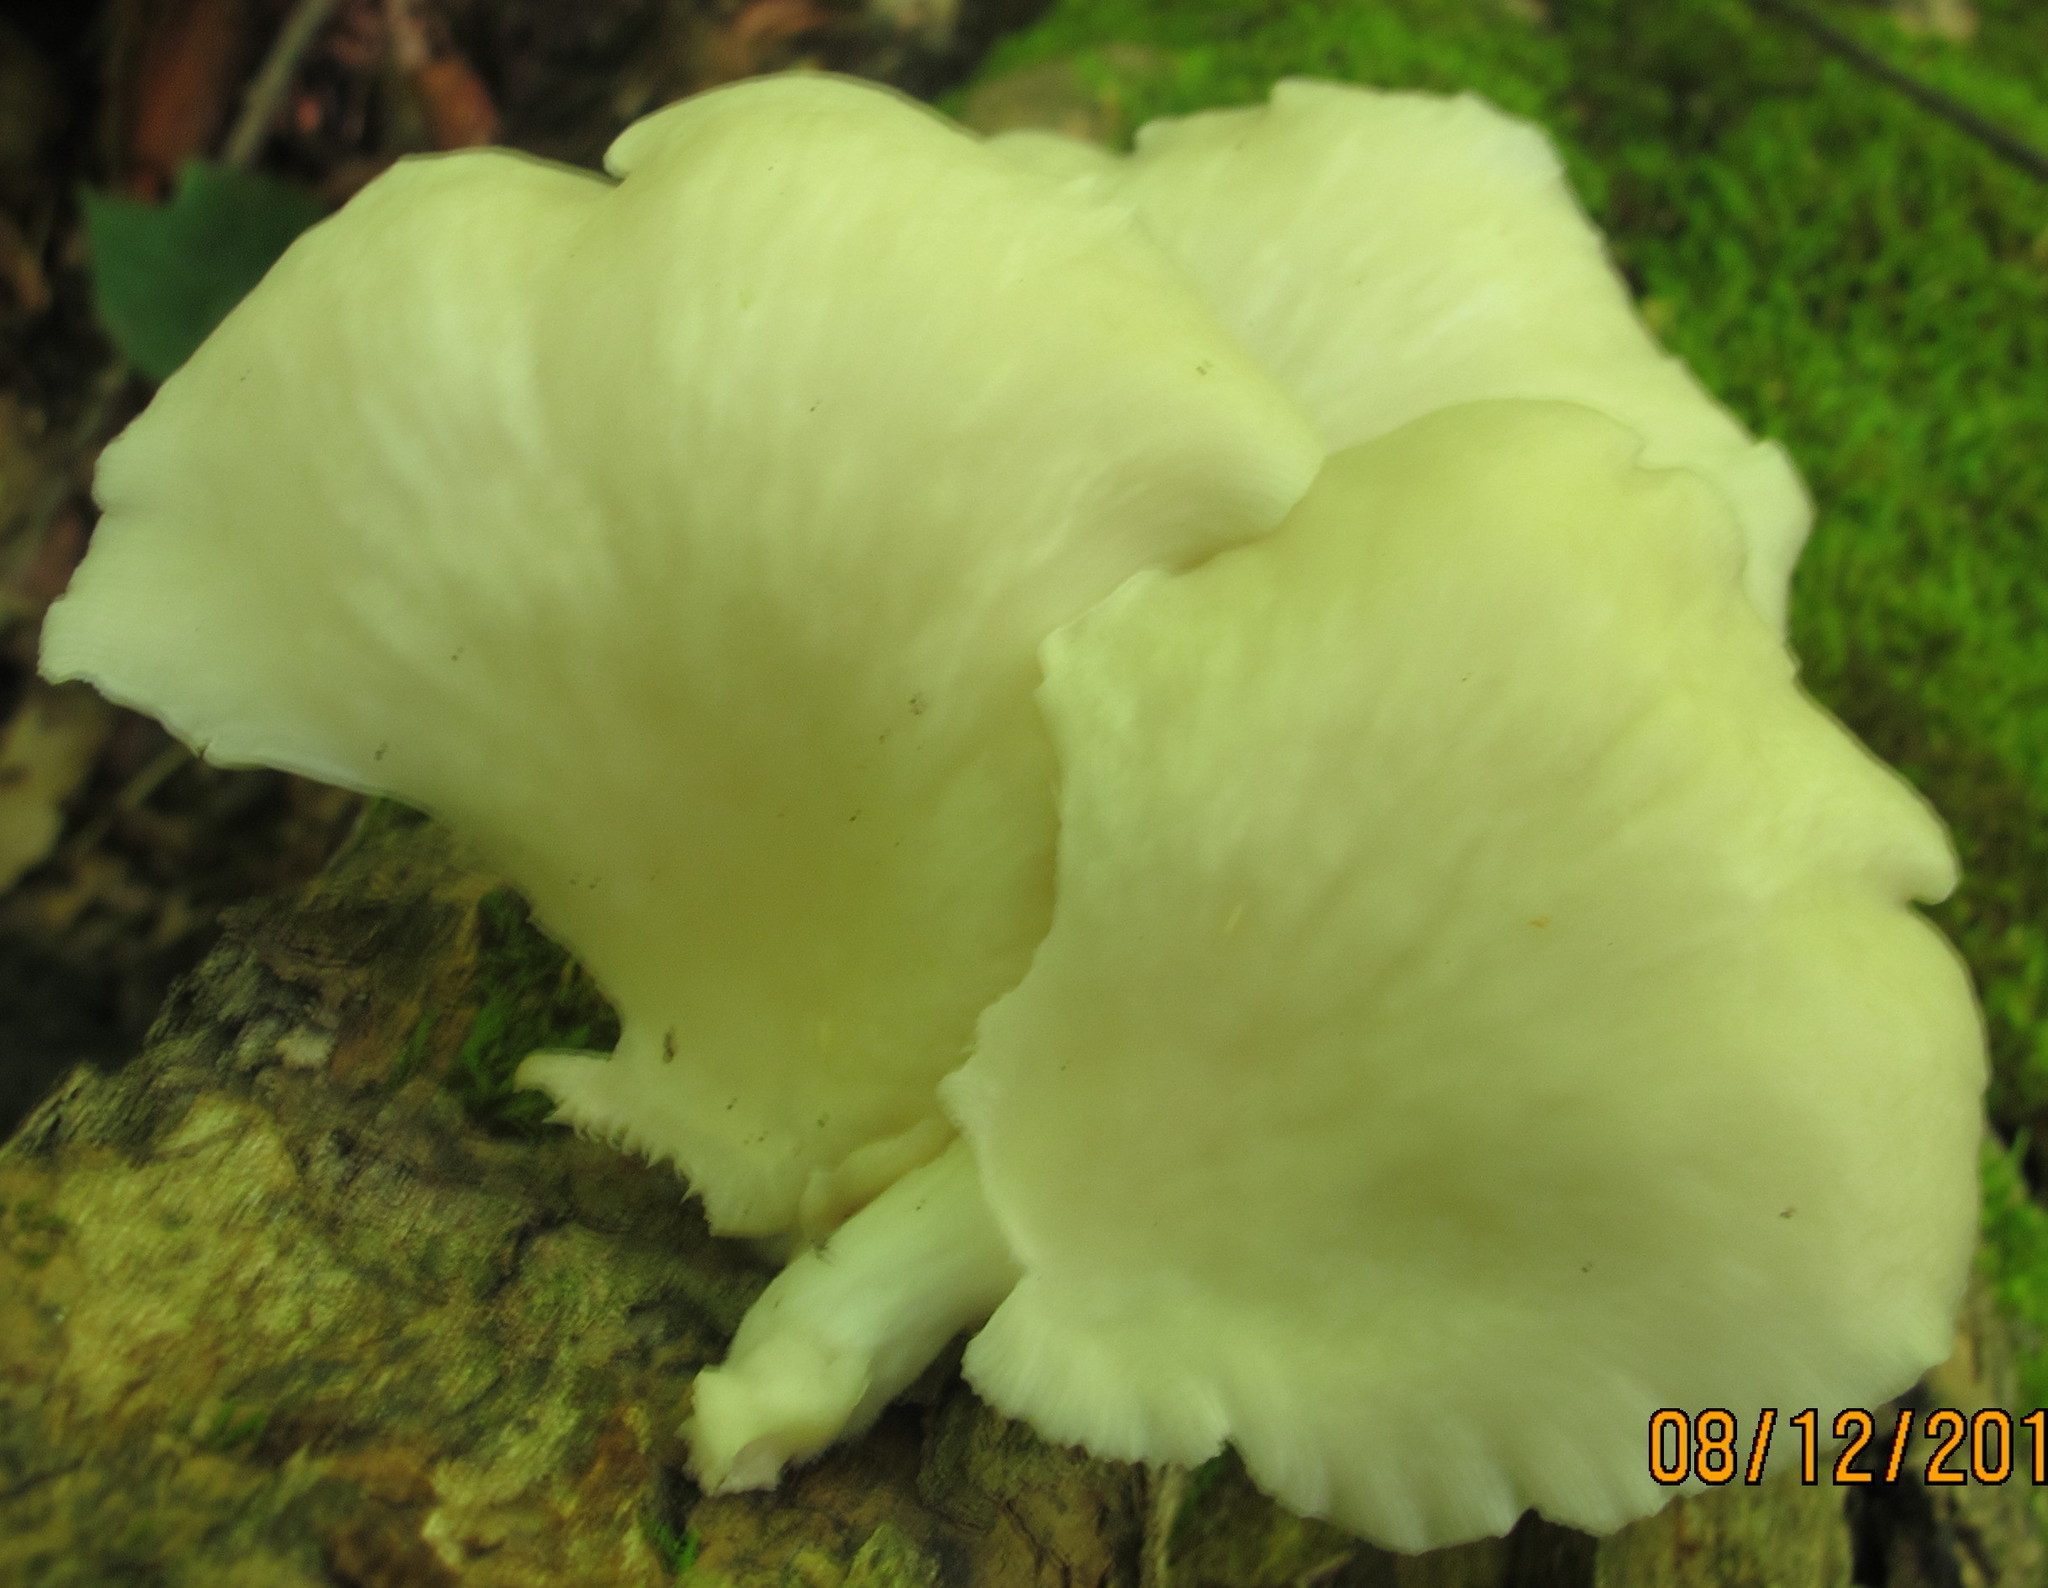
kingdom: Fungi
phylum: Basidiomycota
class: Agaricomycetes
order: Agaricales
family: Pleurotaceae
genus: Pleurotus
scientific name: Pleurotus pulmonarius
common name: Pale oyster
